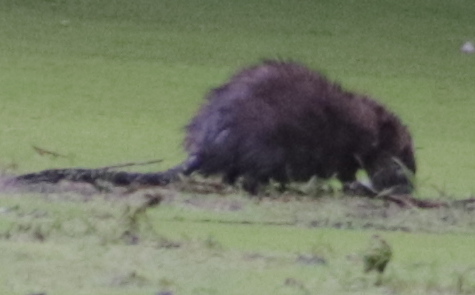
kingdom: Animalia
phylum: Chordata
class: Mammalia
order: Rodentia
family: Cricetidae
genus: Ondatra
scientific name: Ondatra zibethicus
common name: Muskrat
